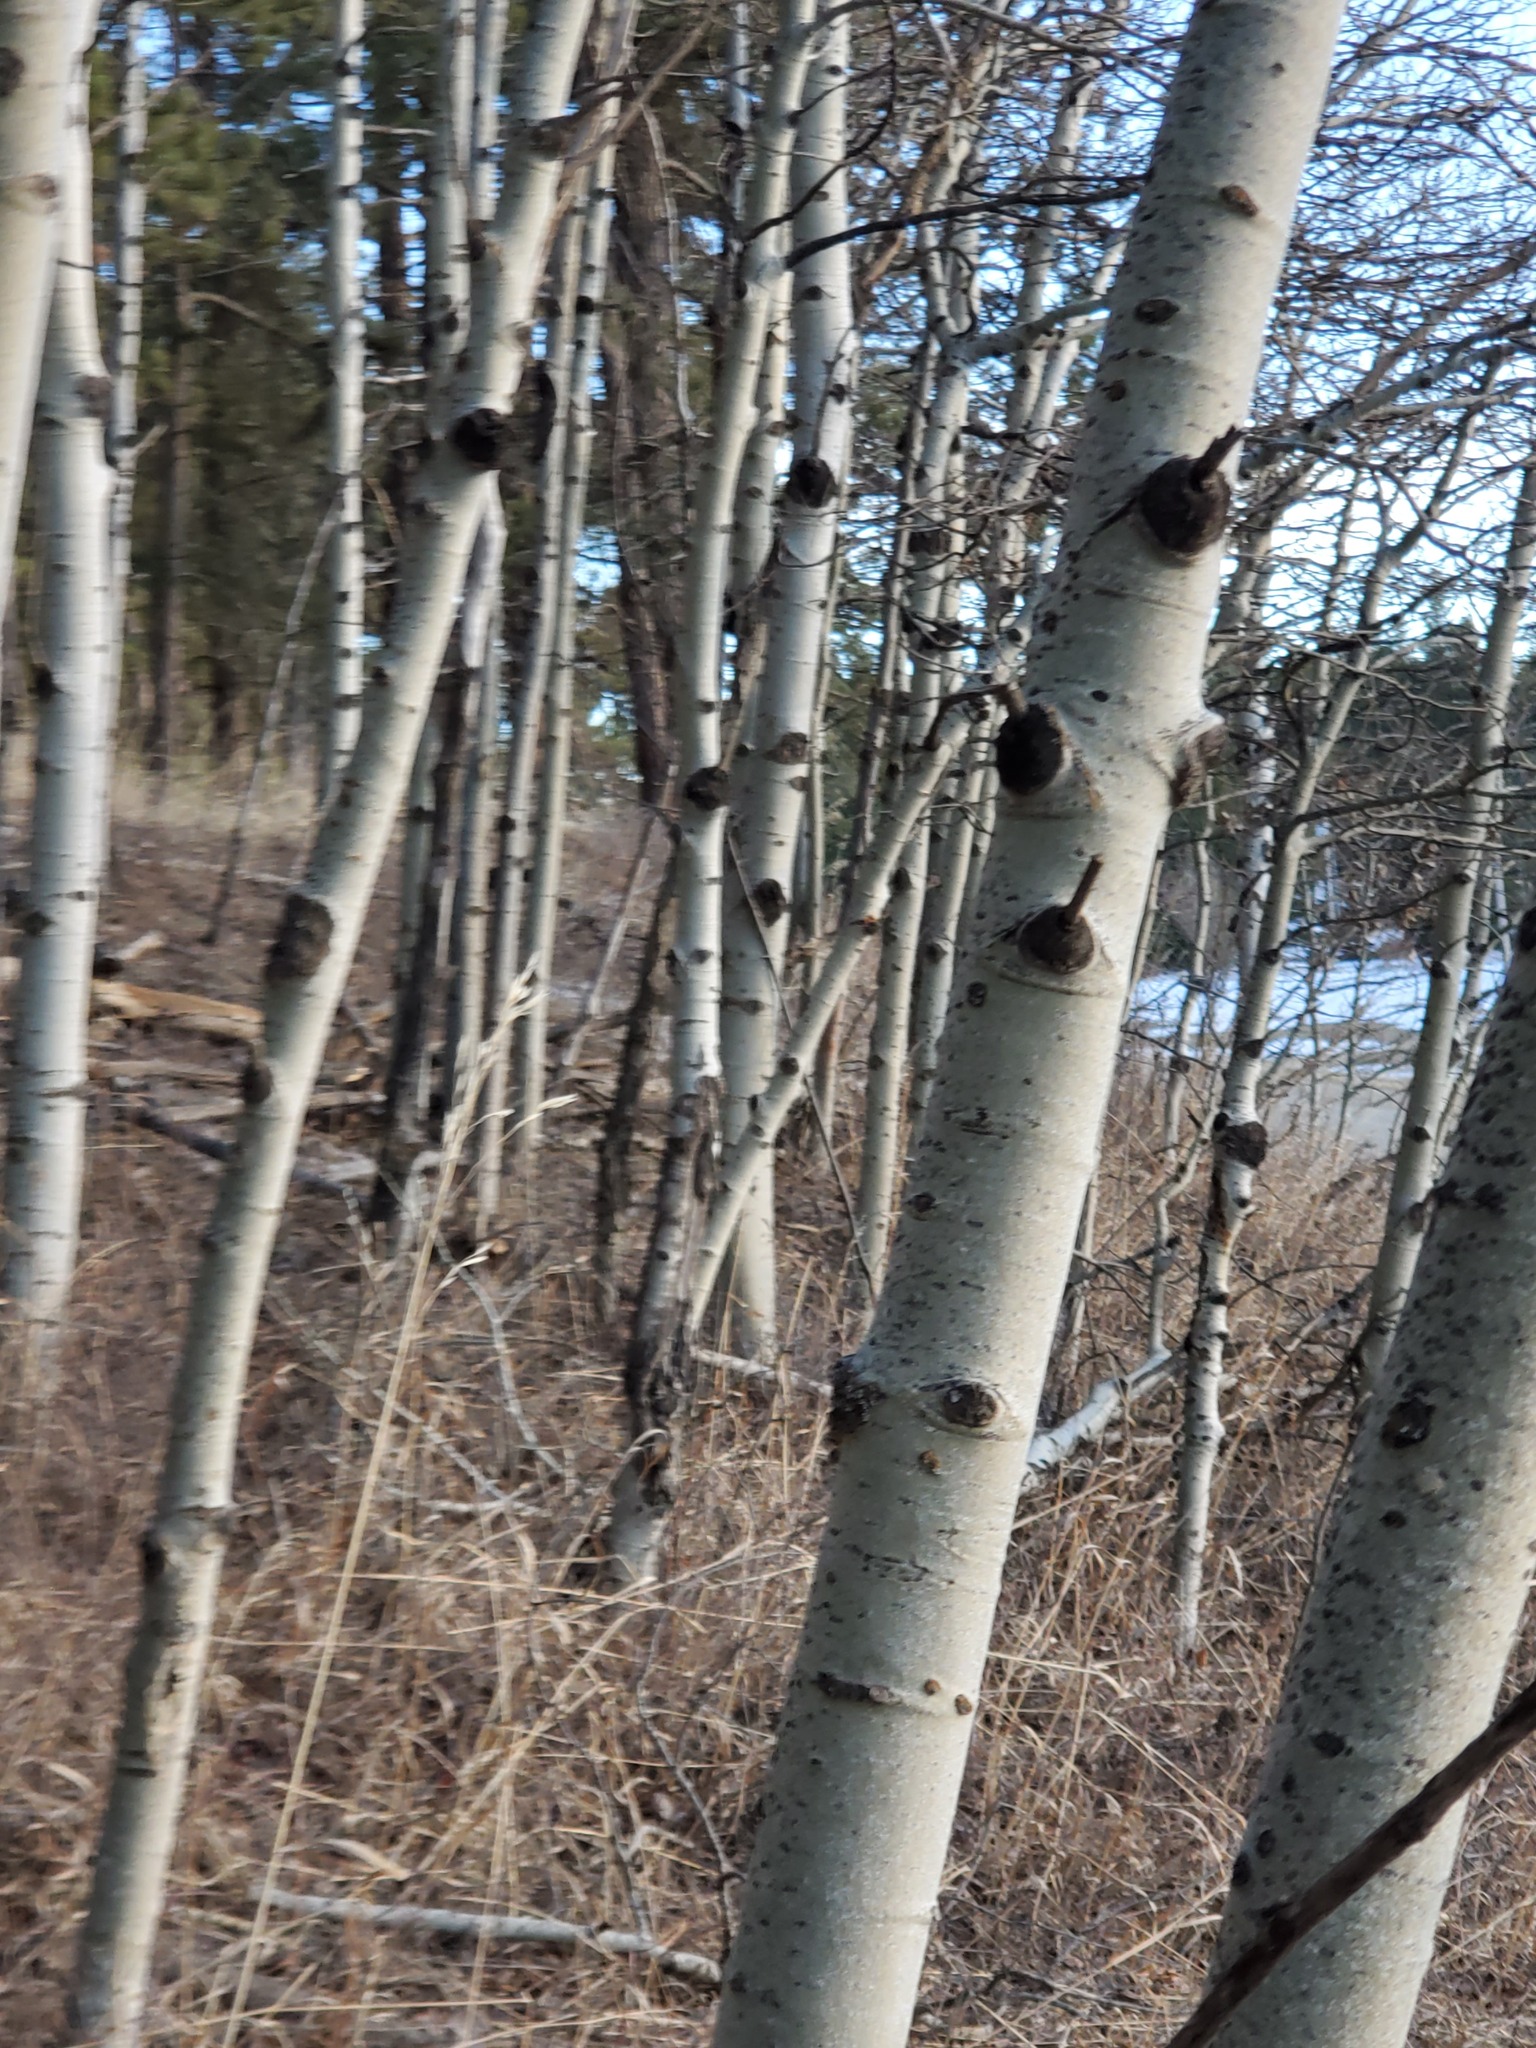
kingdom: Plantae
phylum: Tracheophyta
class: Magnoliopsida
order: Malpighiales
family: Salicaceae
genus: Populus
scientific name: Populus tremuloides
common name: Quaking aspen
